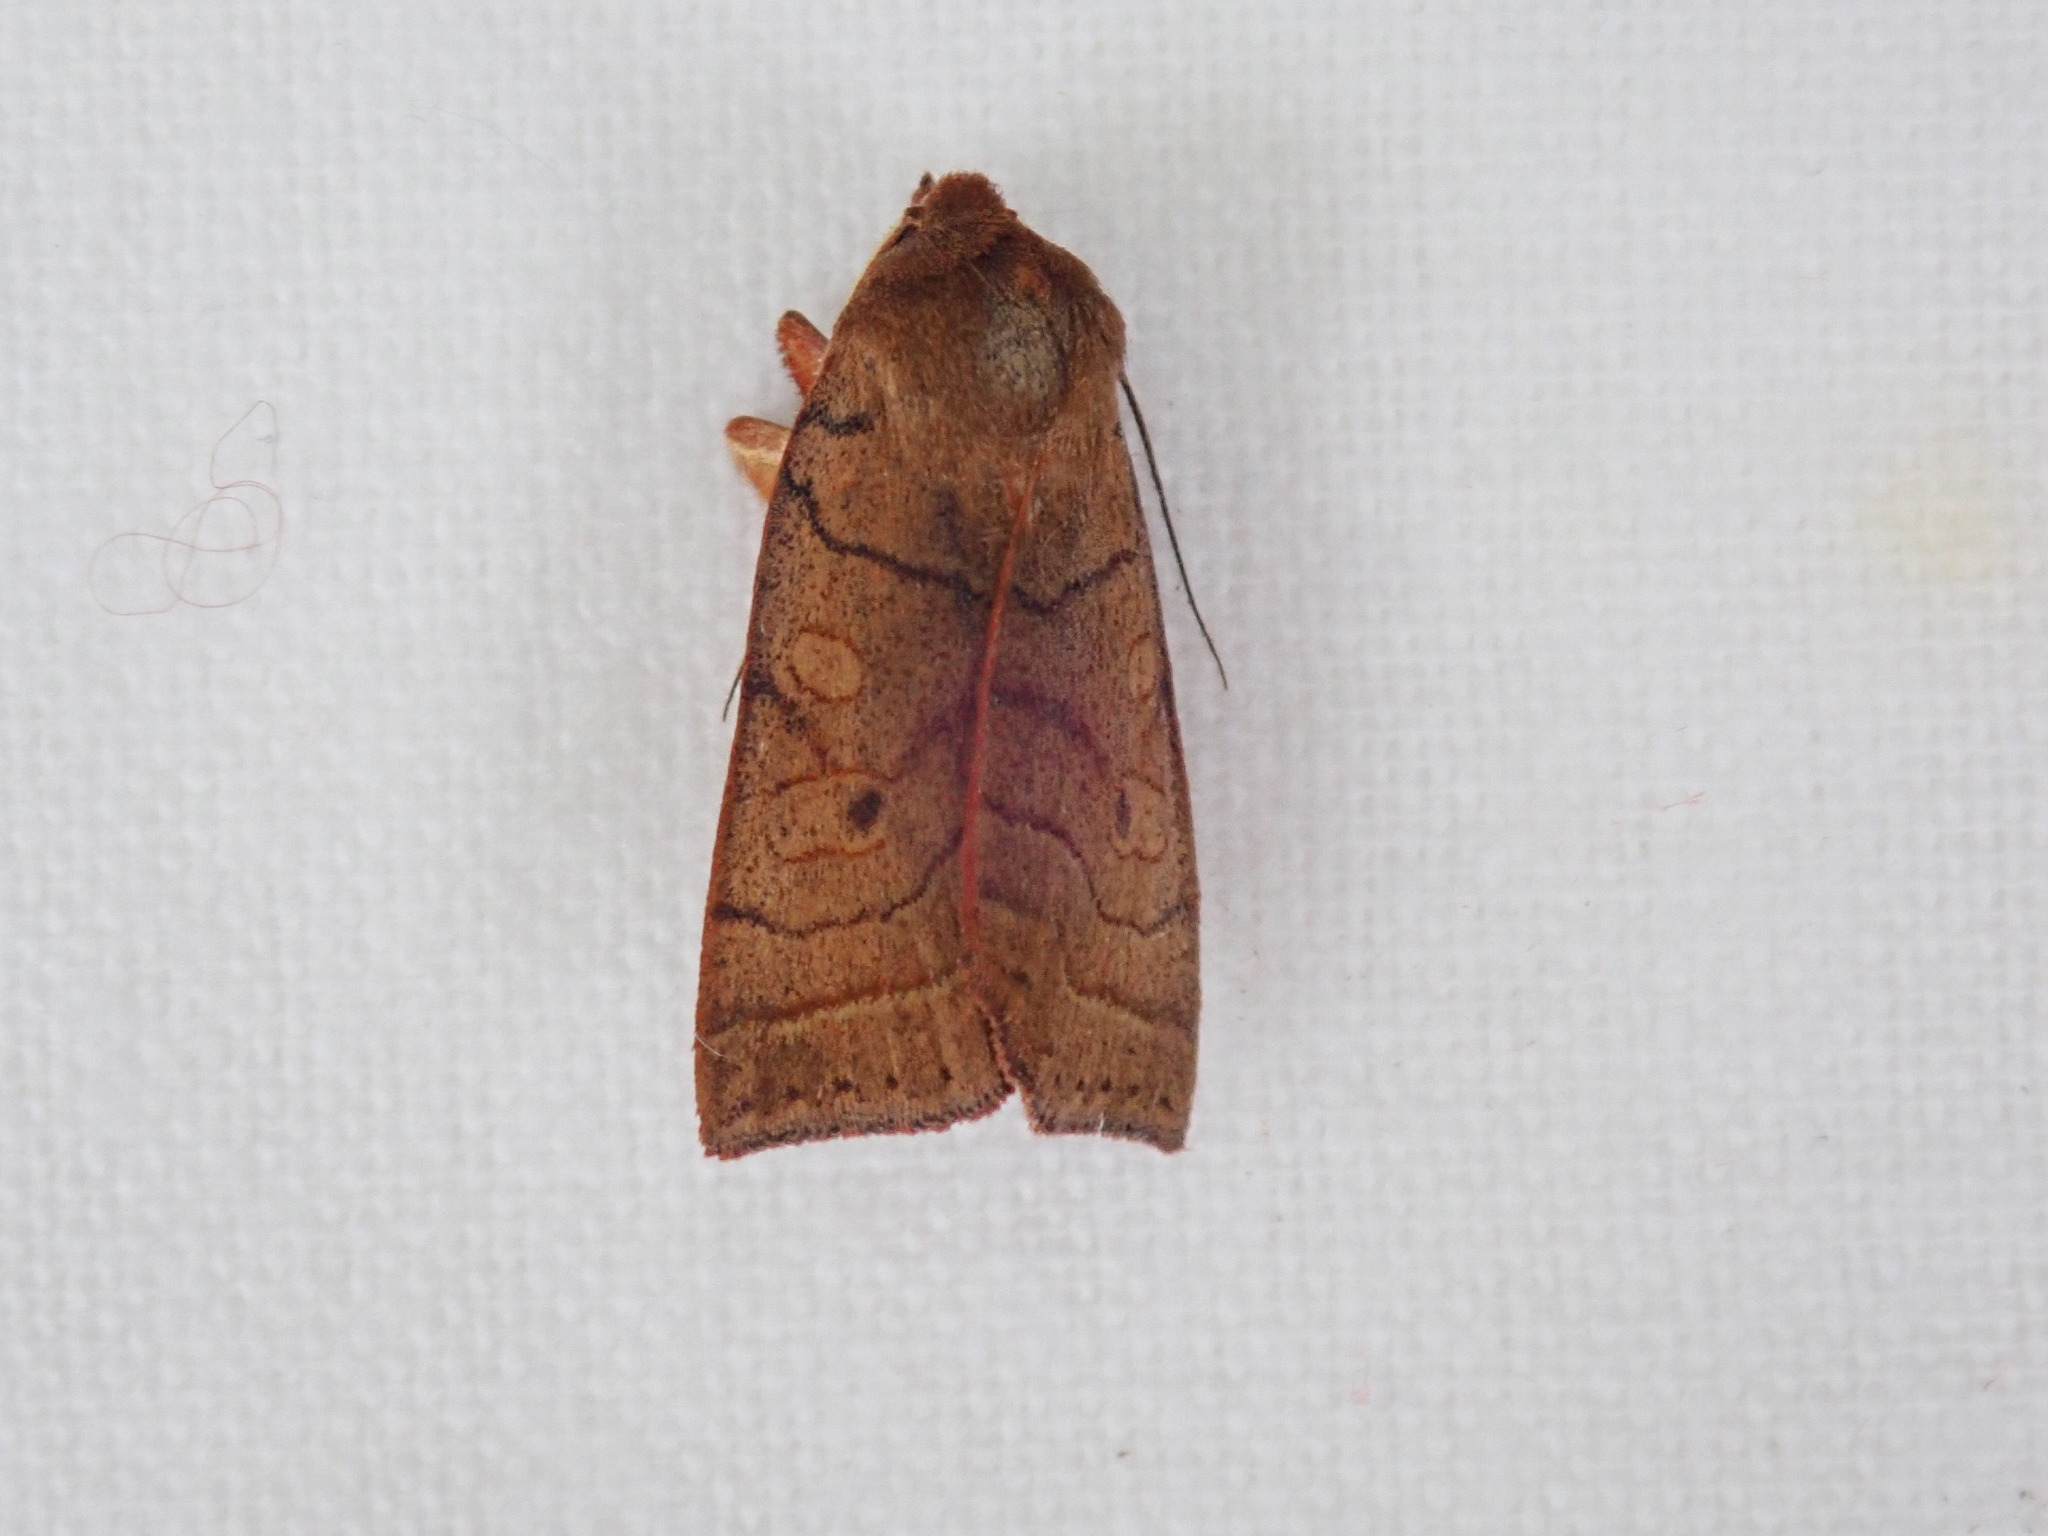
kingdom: Animalia
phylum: Arthropoda
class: Insecta
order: Lepidoptera
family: Noctuidae
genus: Epiglaea
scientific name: Epiglaea apiata
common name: Pointed sallow
